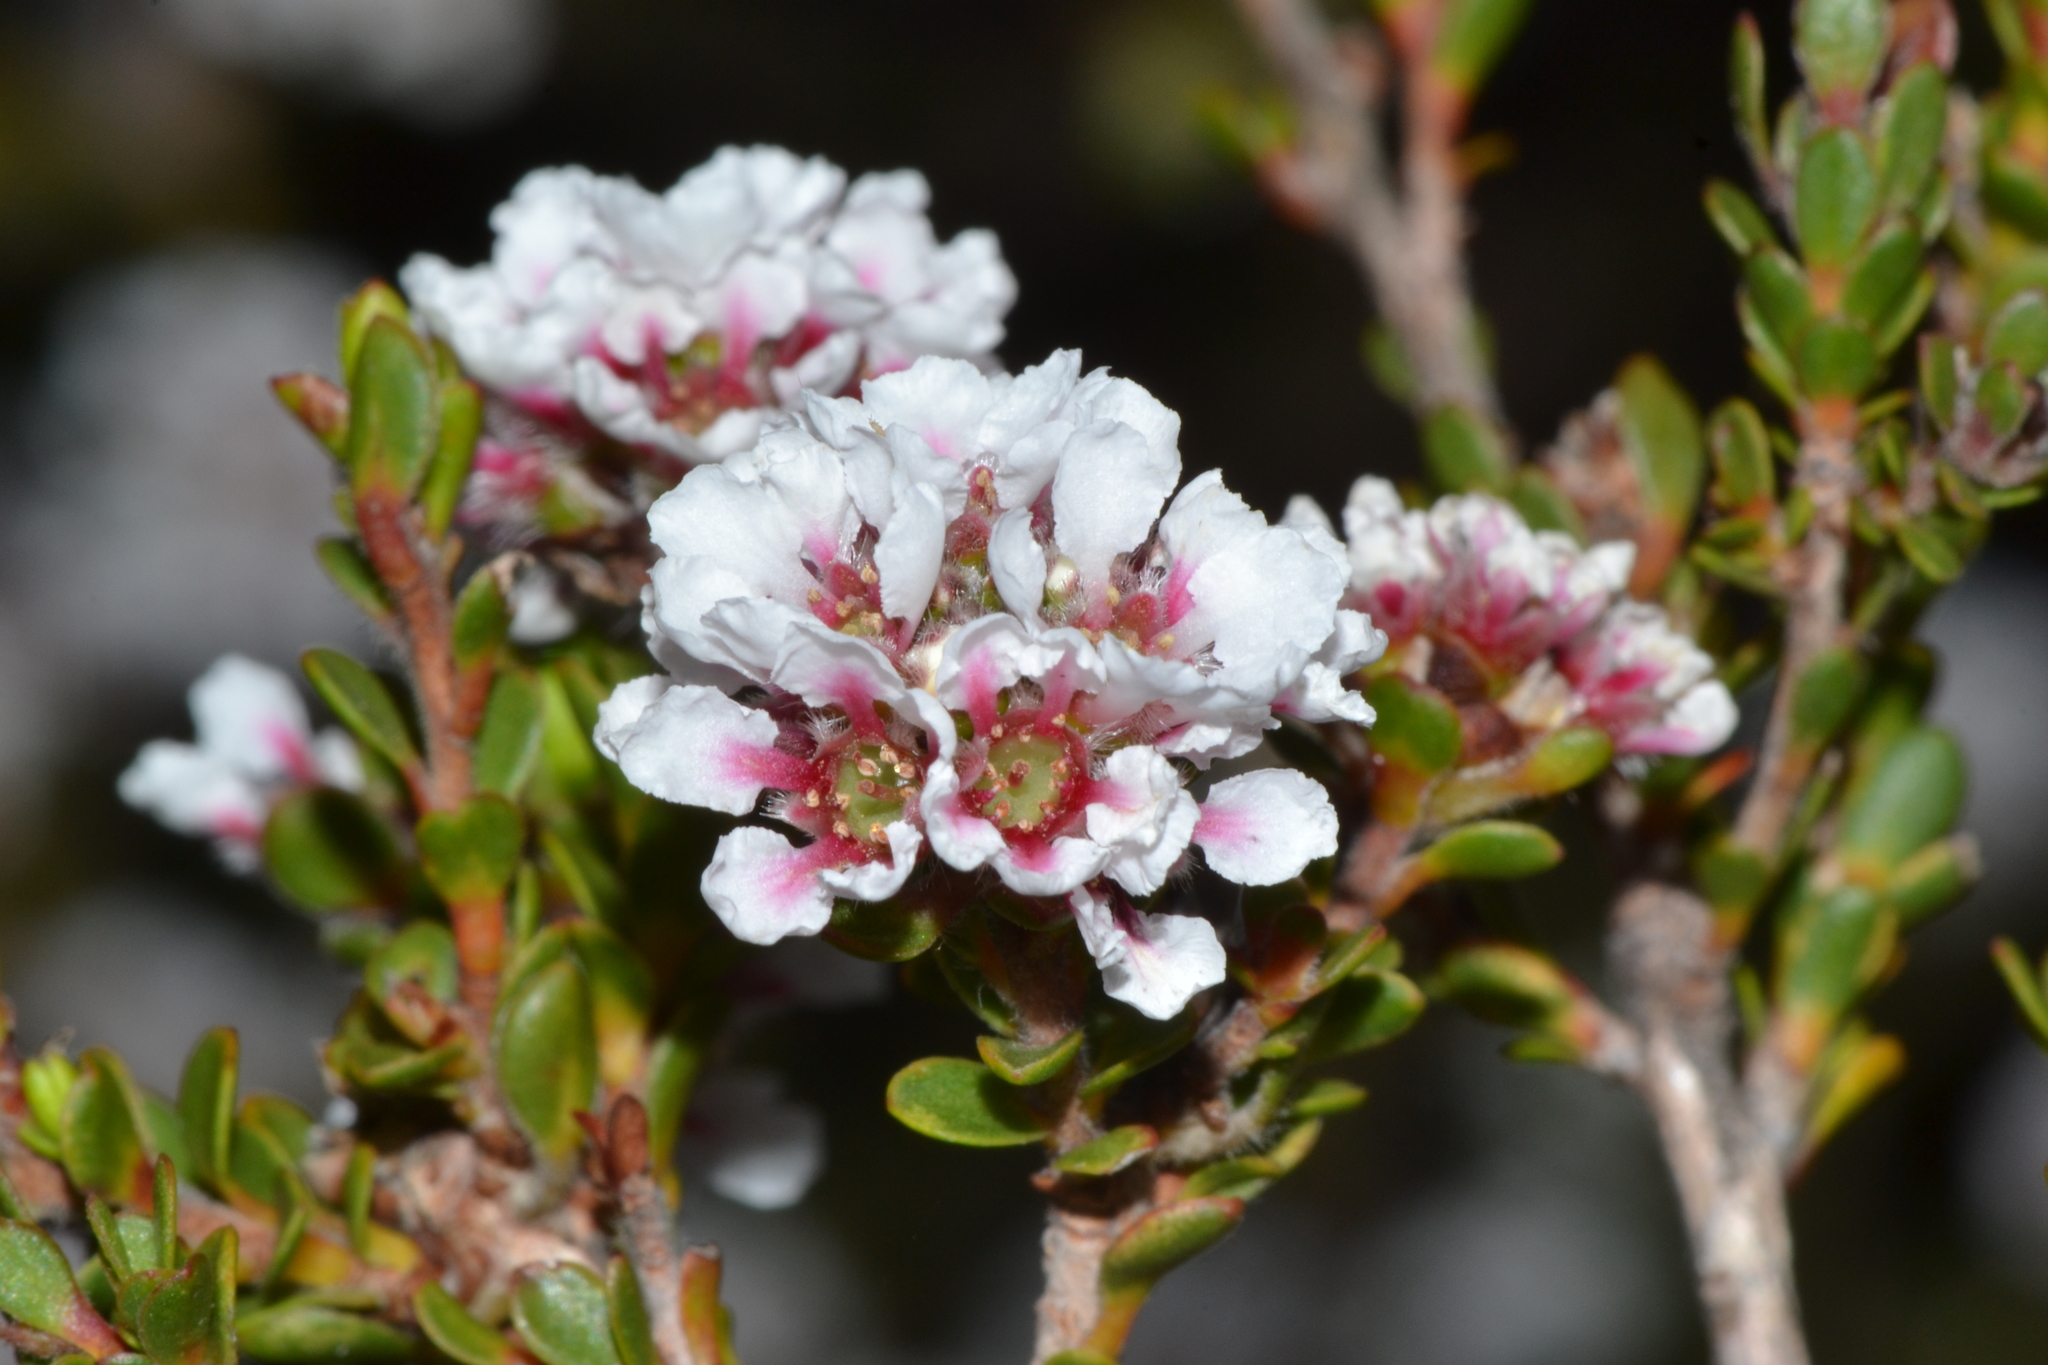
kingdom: Plantae
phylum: Tracheophyta
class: Magnoliopsida
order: Myrtales
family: Myrtaceae
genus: Taxandria
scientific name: Taxandria spathulata
